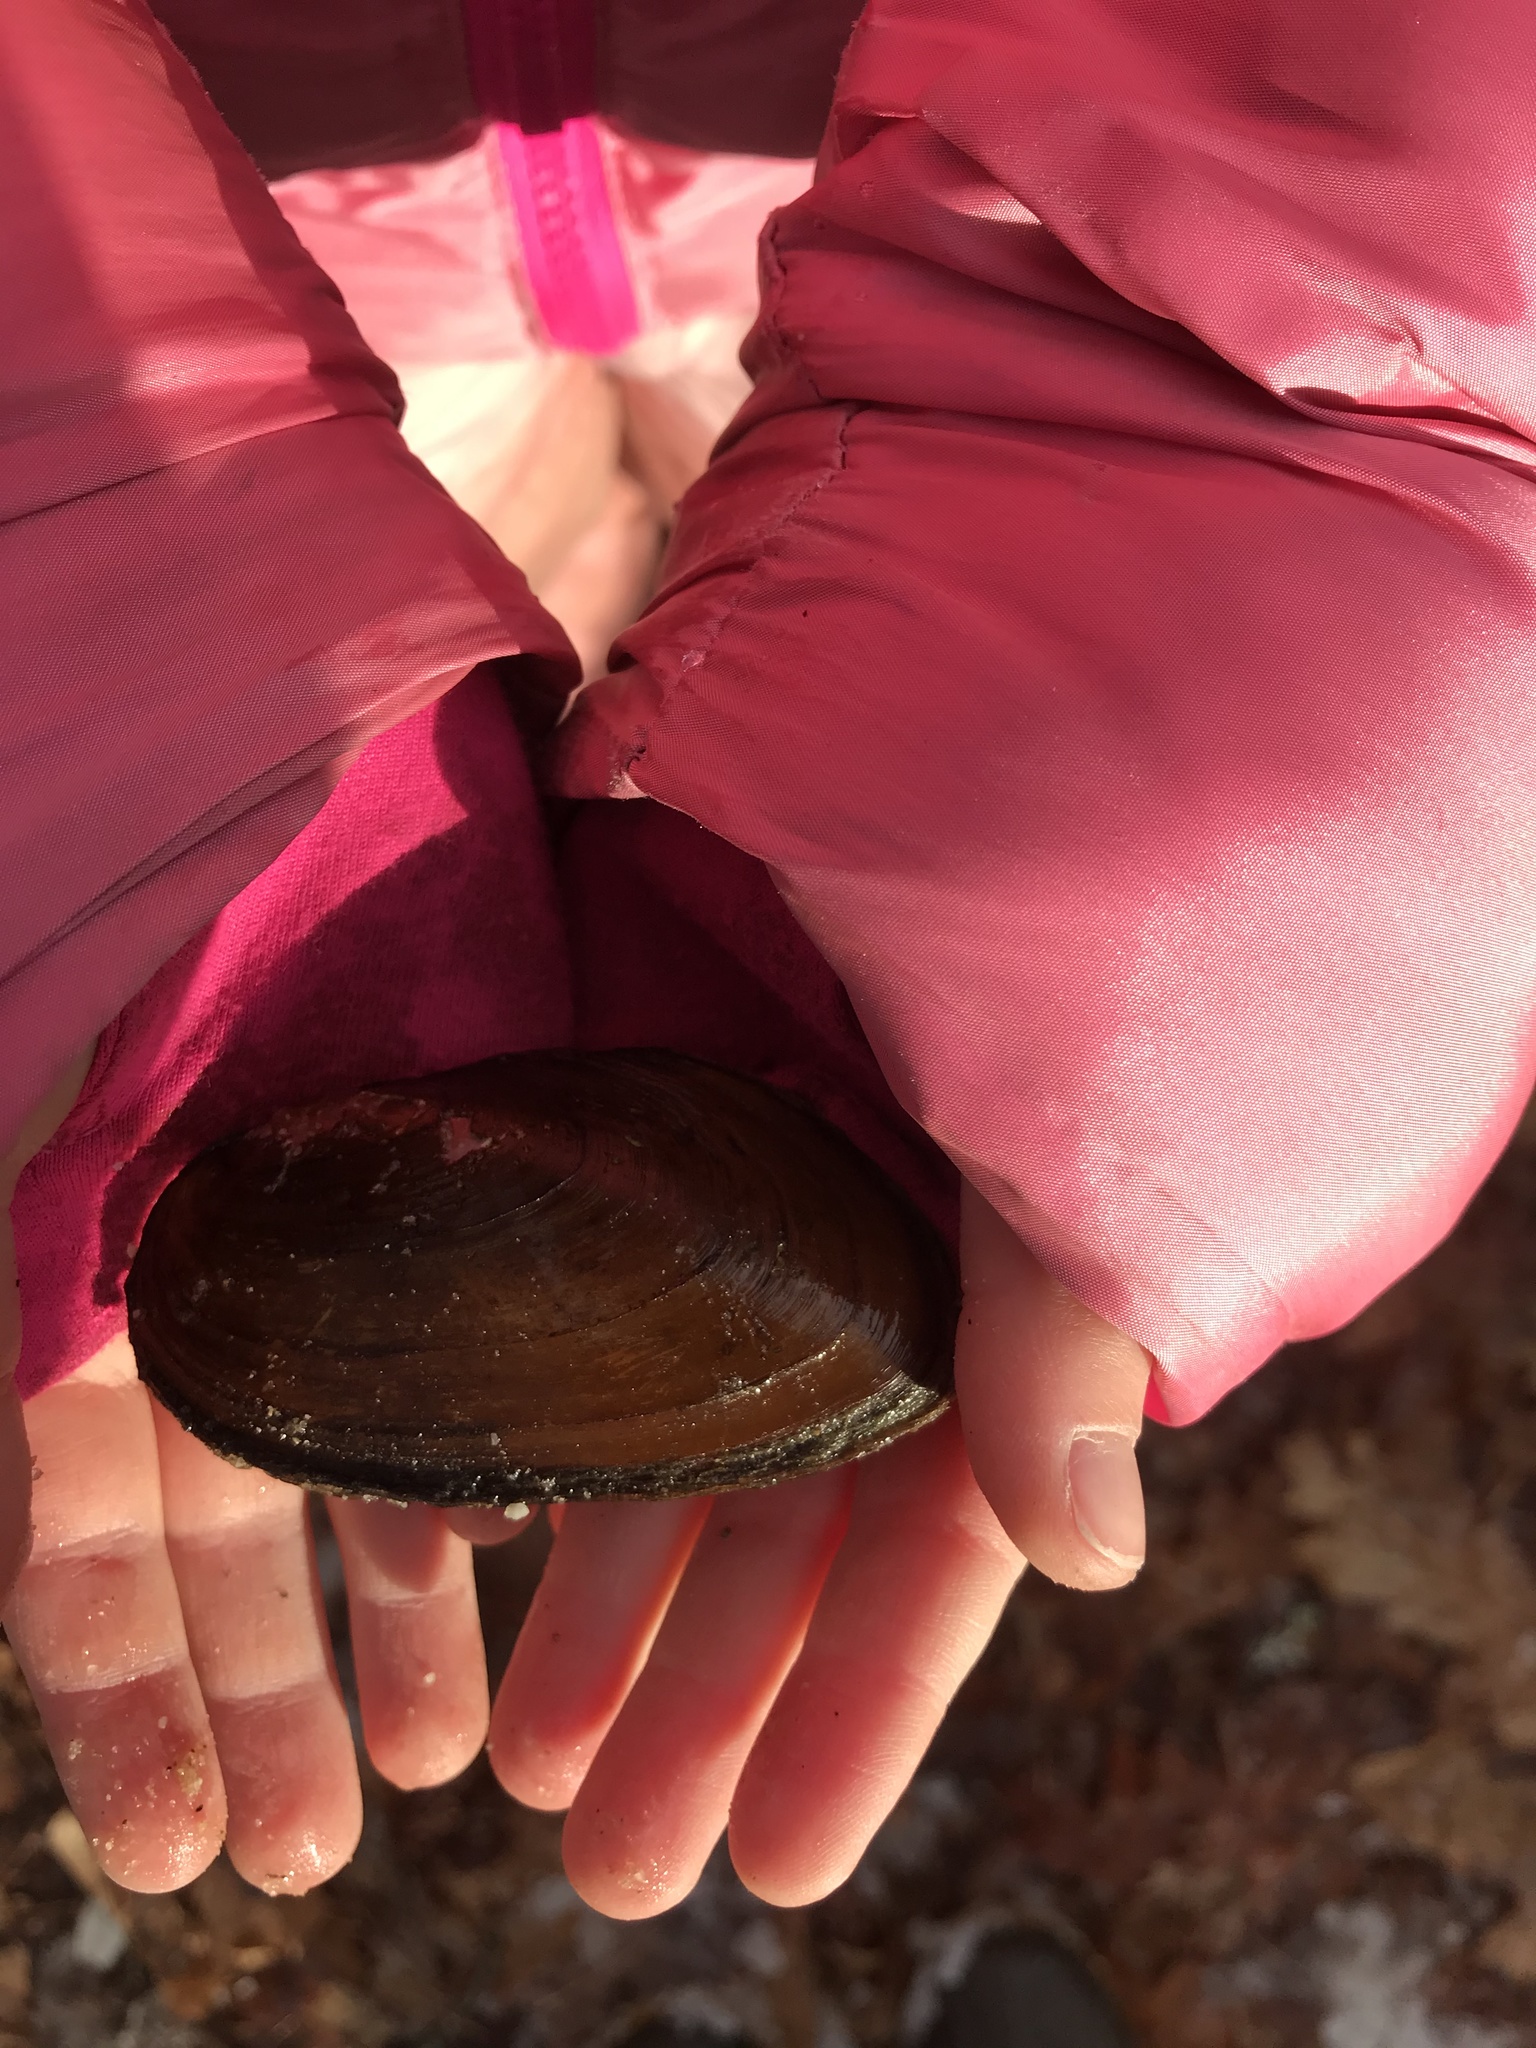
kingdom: Animalia
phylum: Mollusca
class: Bivalvia
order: Unionida
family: Unionidae
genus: Elliptio
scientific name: Elliptio complanata
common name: Eastern elliptio
